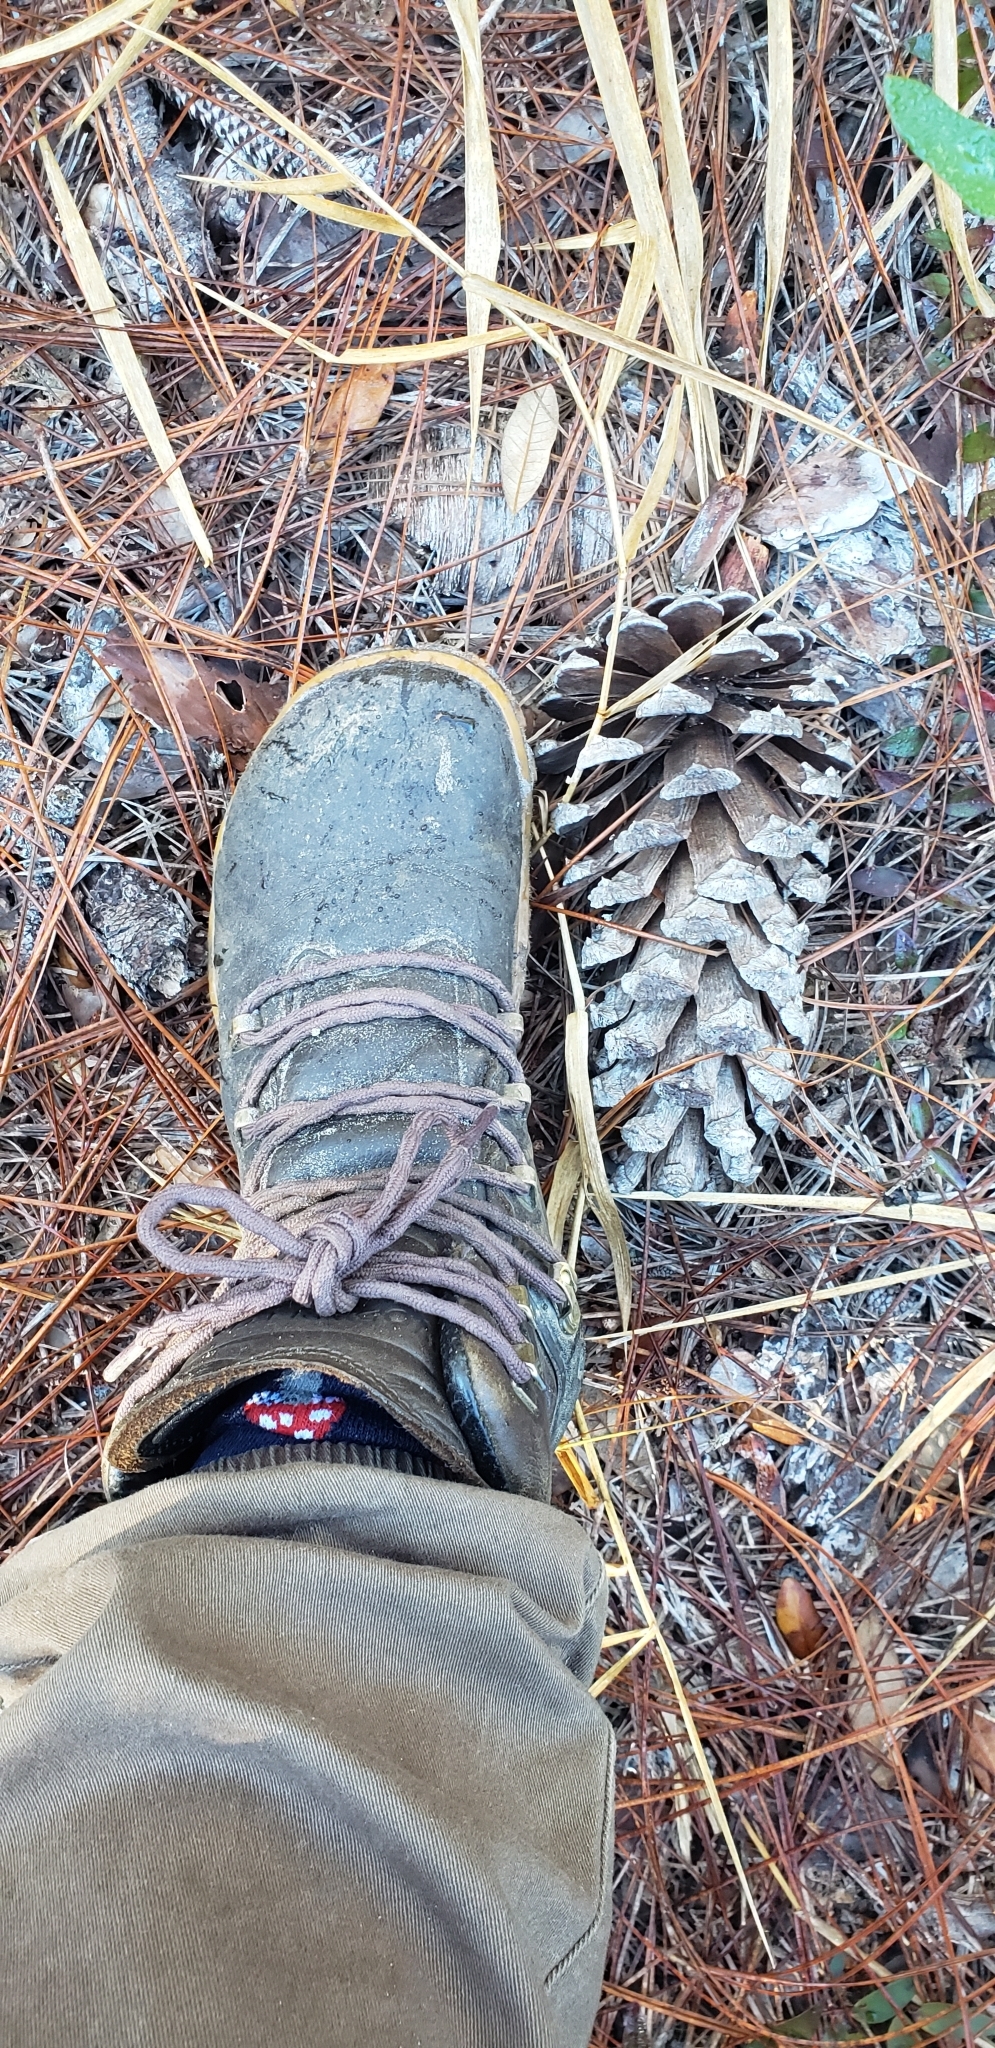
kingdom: Plantae
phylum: Tracheophyta
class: Pinopsida
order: Pinales
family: Pinaceae
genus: Pinus
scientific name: Pinus palustris
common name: Longleaf pine
